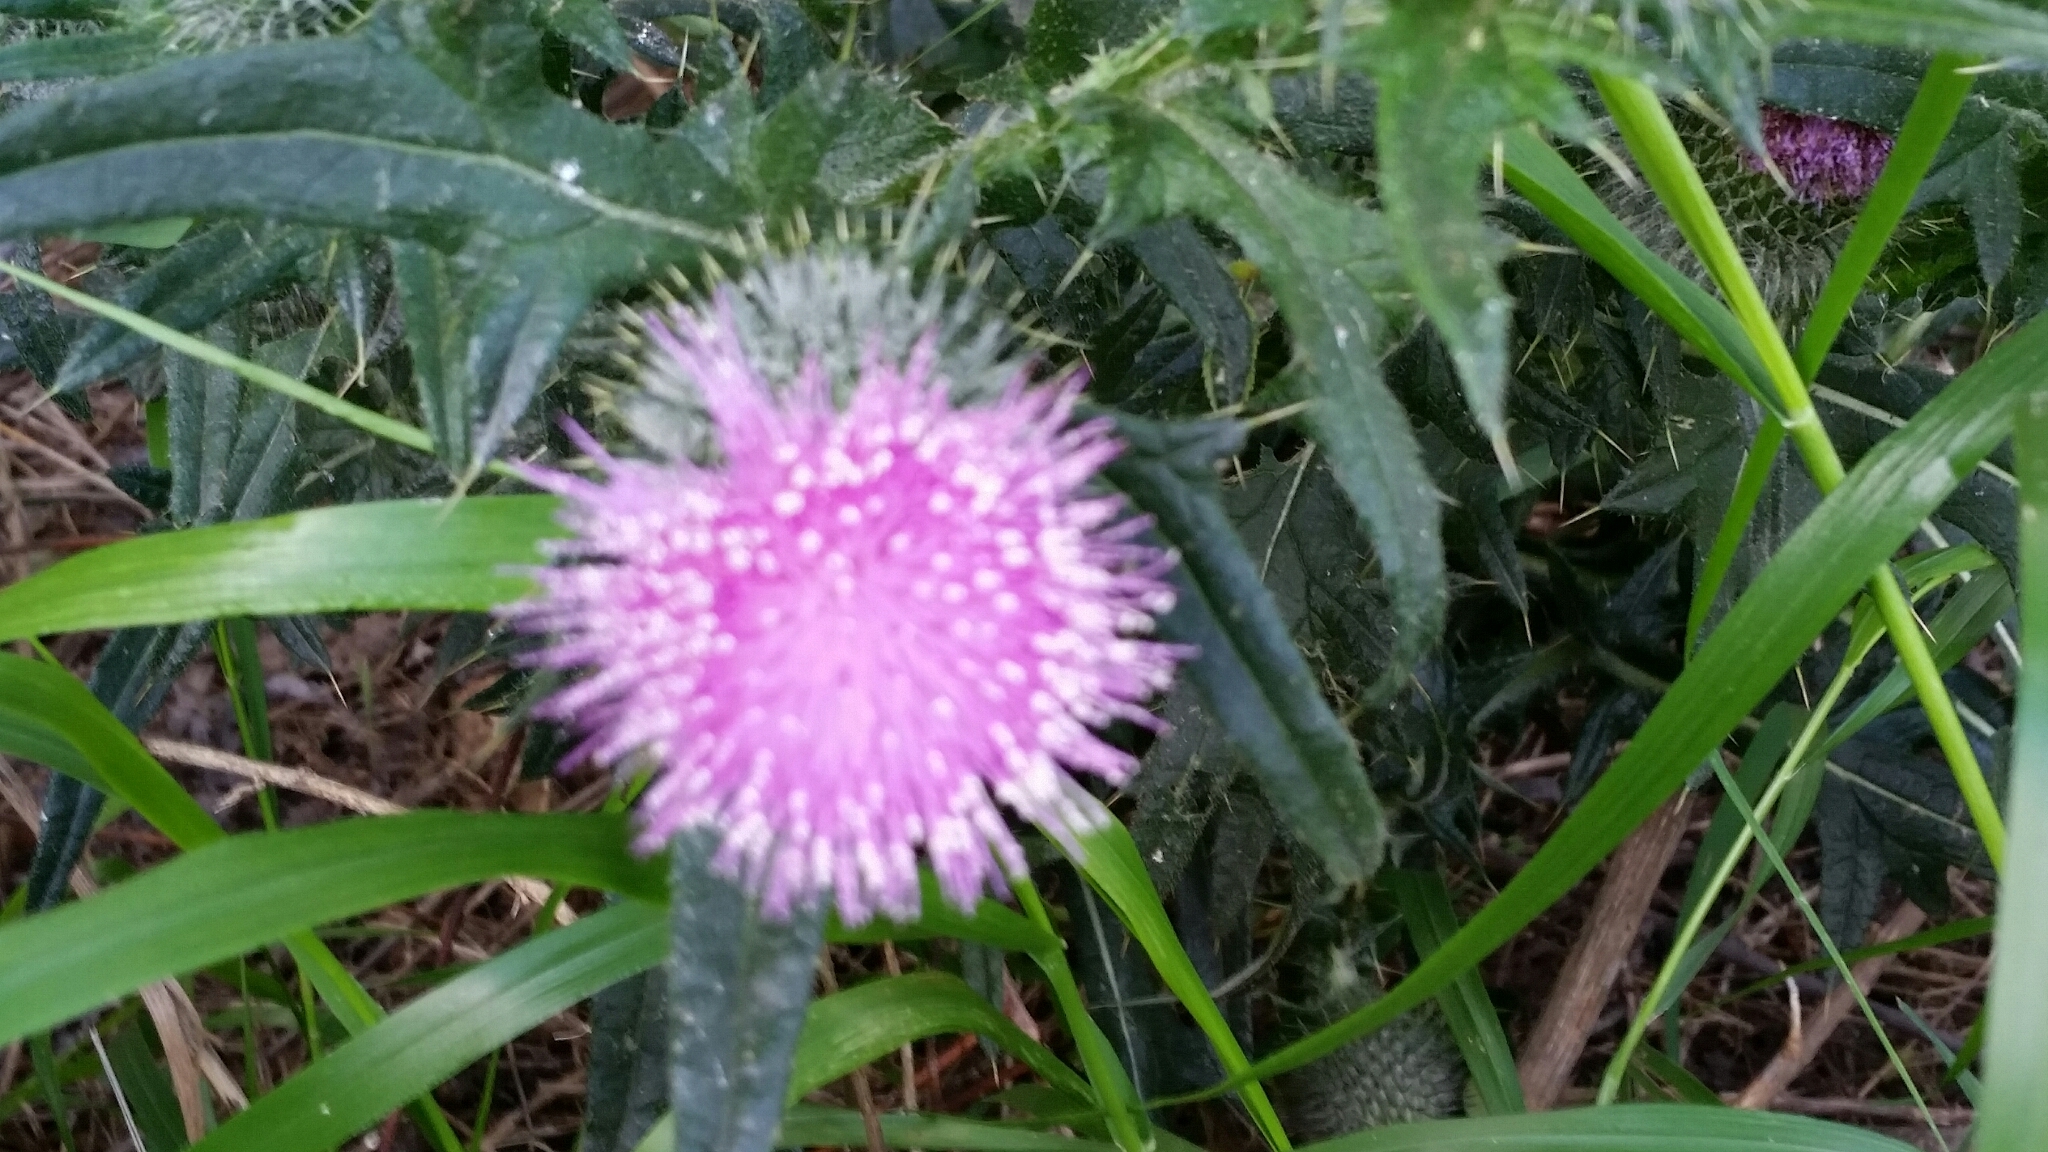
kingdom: Plantae
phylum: Tracheophyta
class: Magnoliopsida
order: Asterales
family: Asteraceae
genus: Cirsium
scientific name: Cirsium vulgare
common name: Bull thistle
